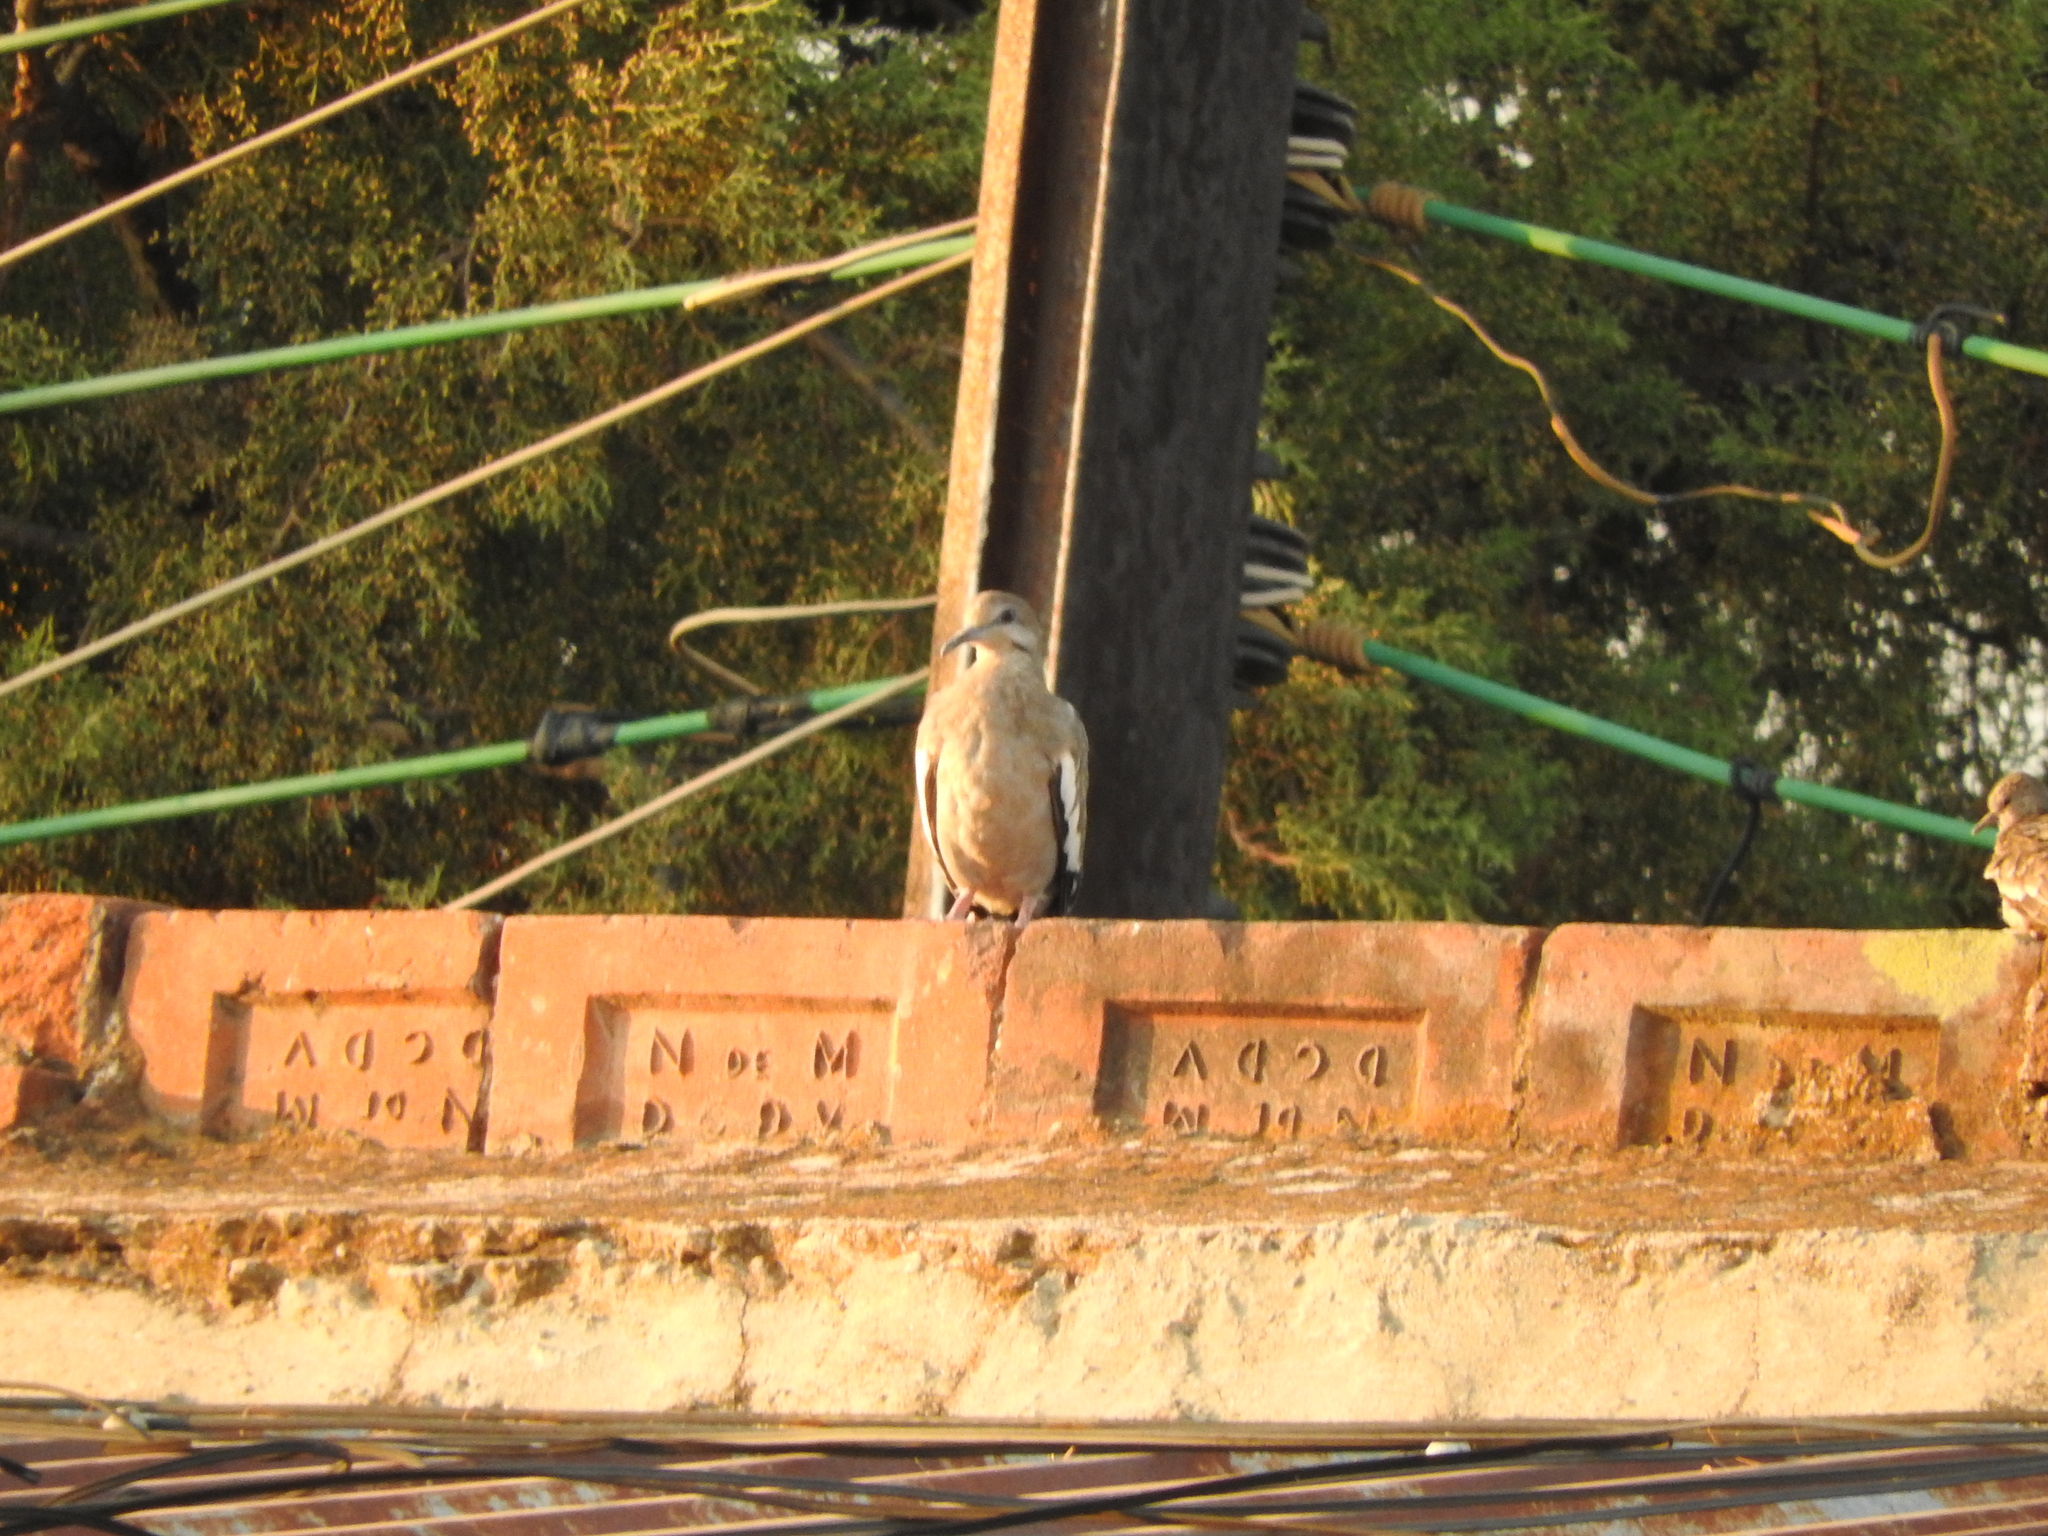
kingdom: Animalia
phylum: Chordata
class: Aves
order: Columbiformes
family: Columbidae
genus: Zenaida
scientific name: Zenaida asiatica
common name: White-winged dove
